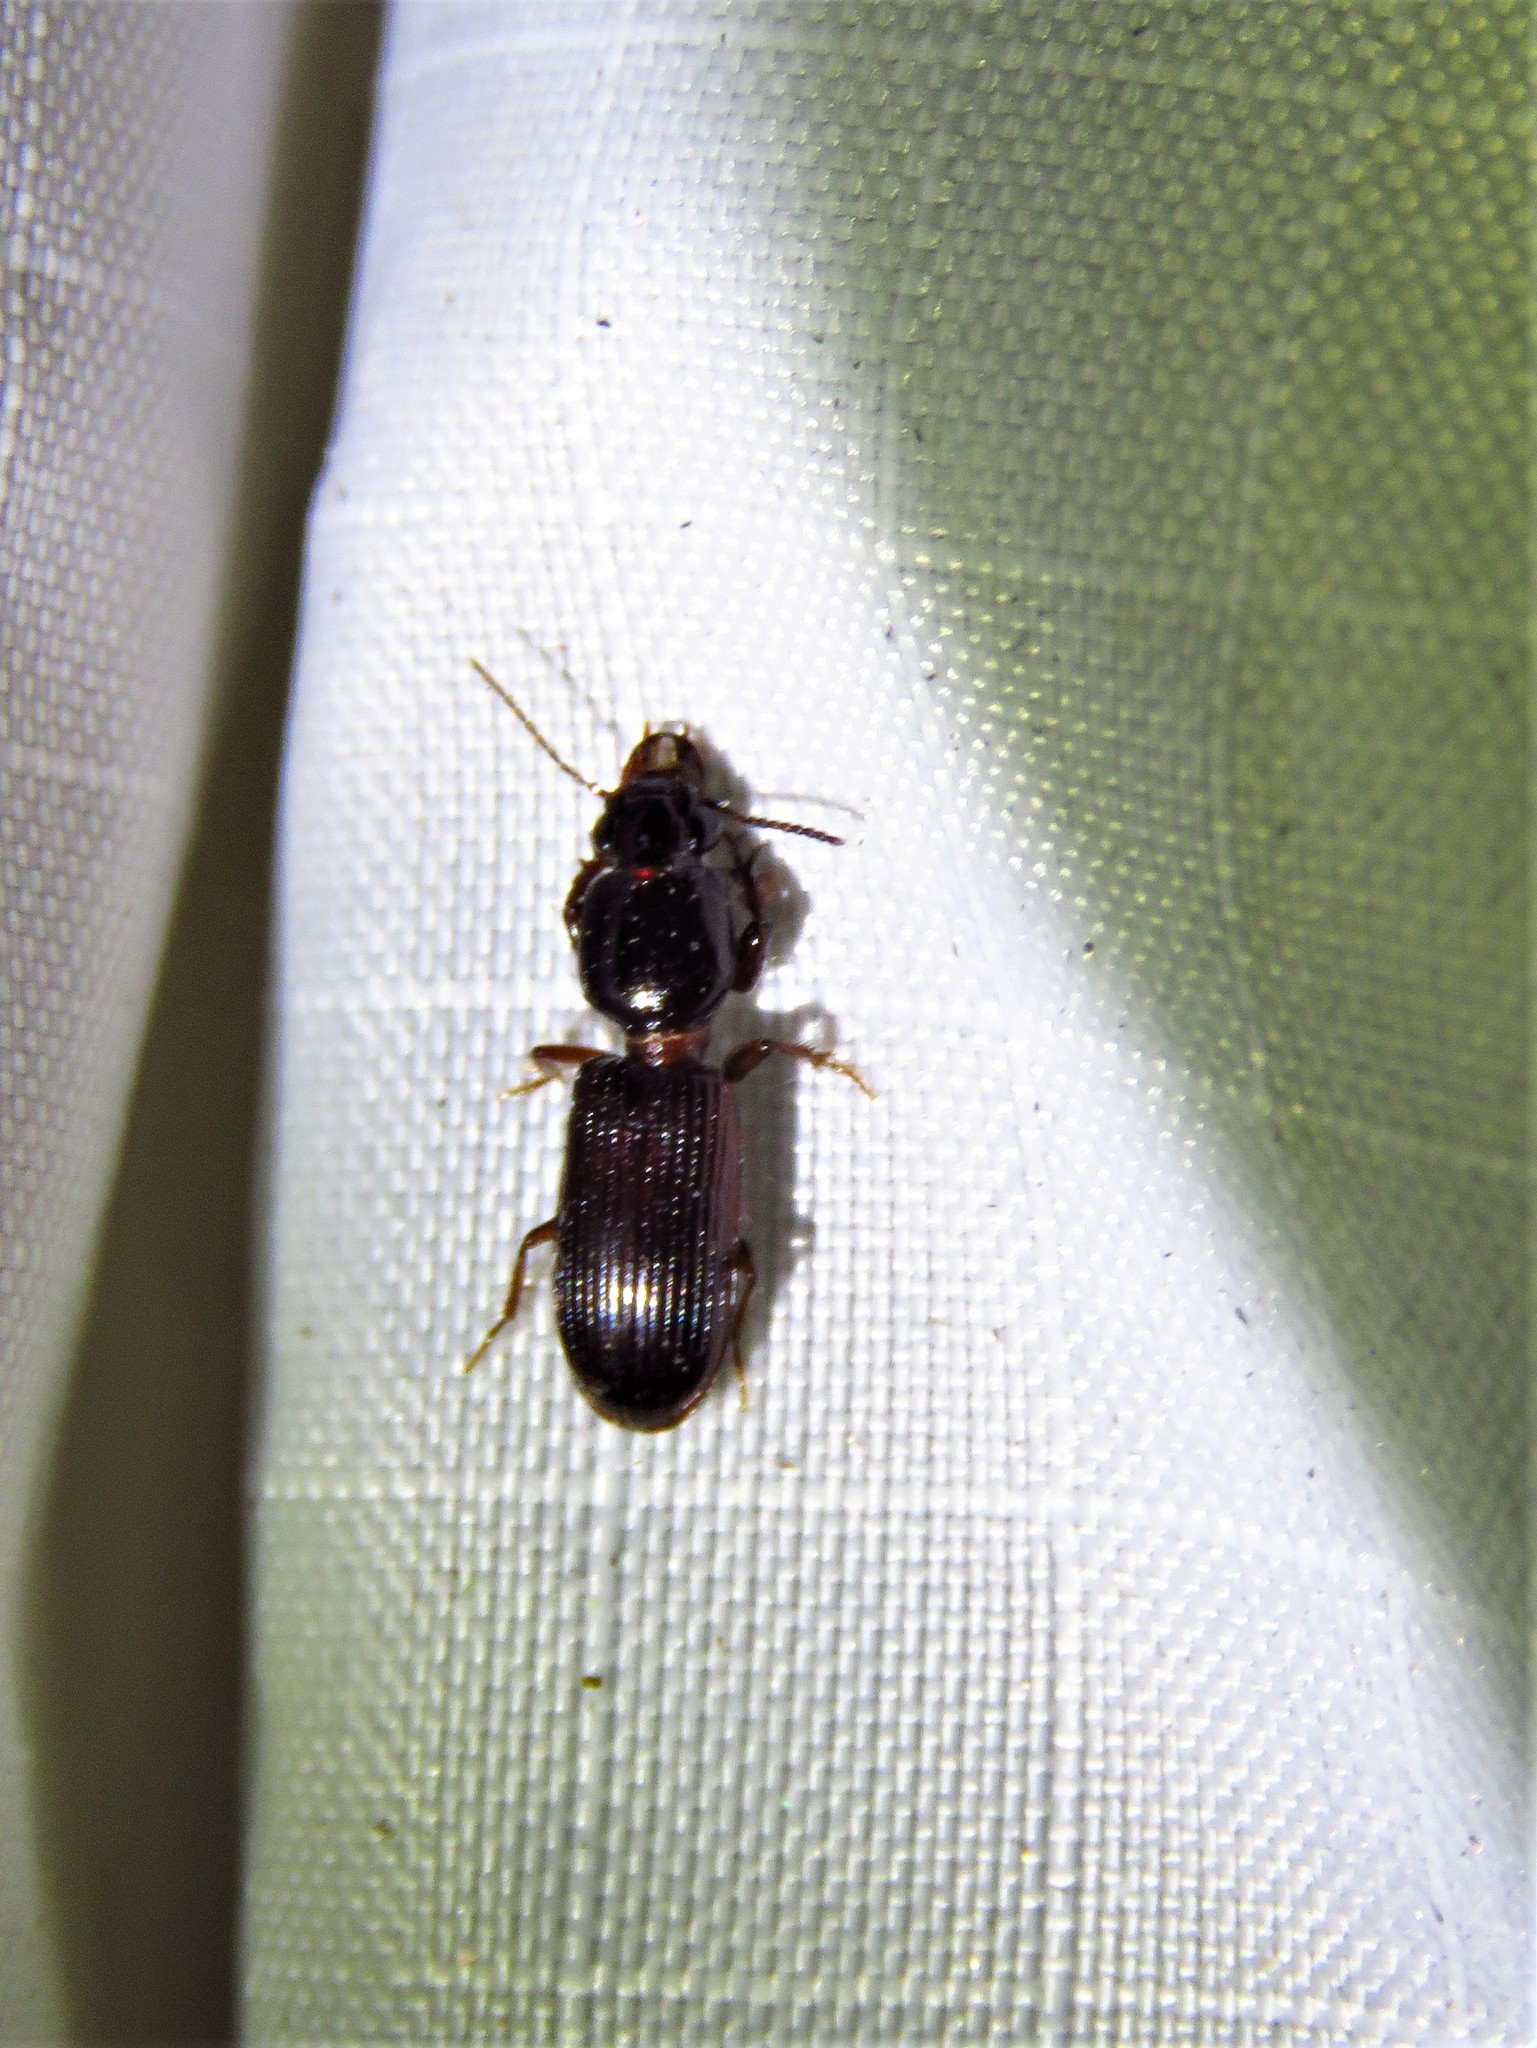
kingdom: Animalia
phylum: Arthropoda
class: Insecta
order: Coleoptera
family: Carabidae
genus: Semiclivina
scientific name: Semiclivina dentipes
